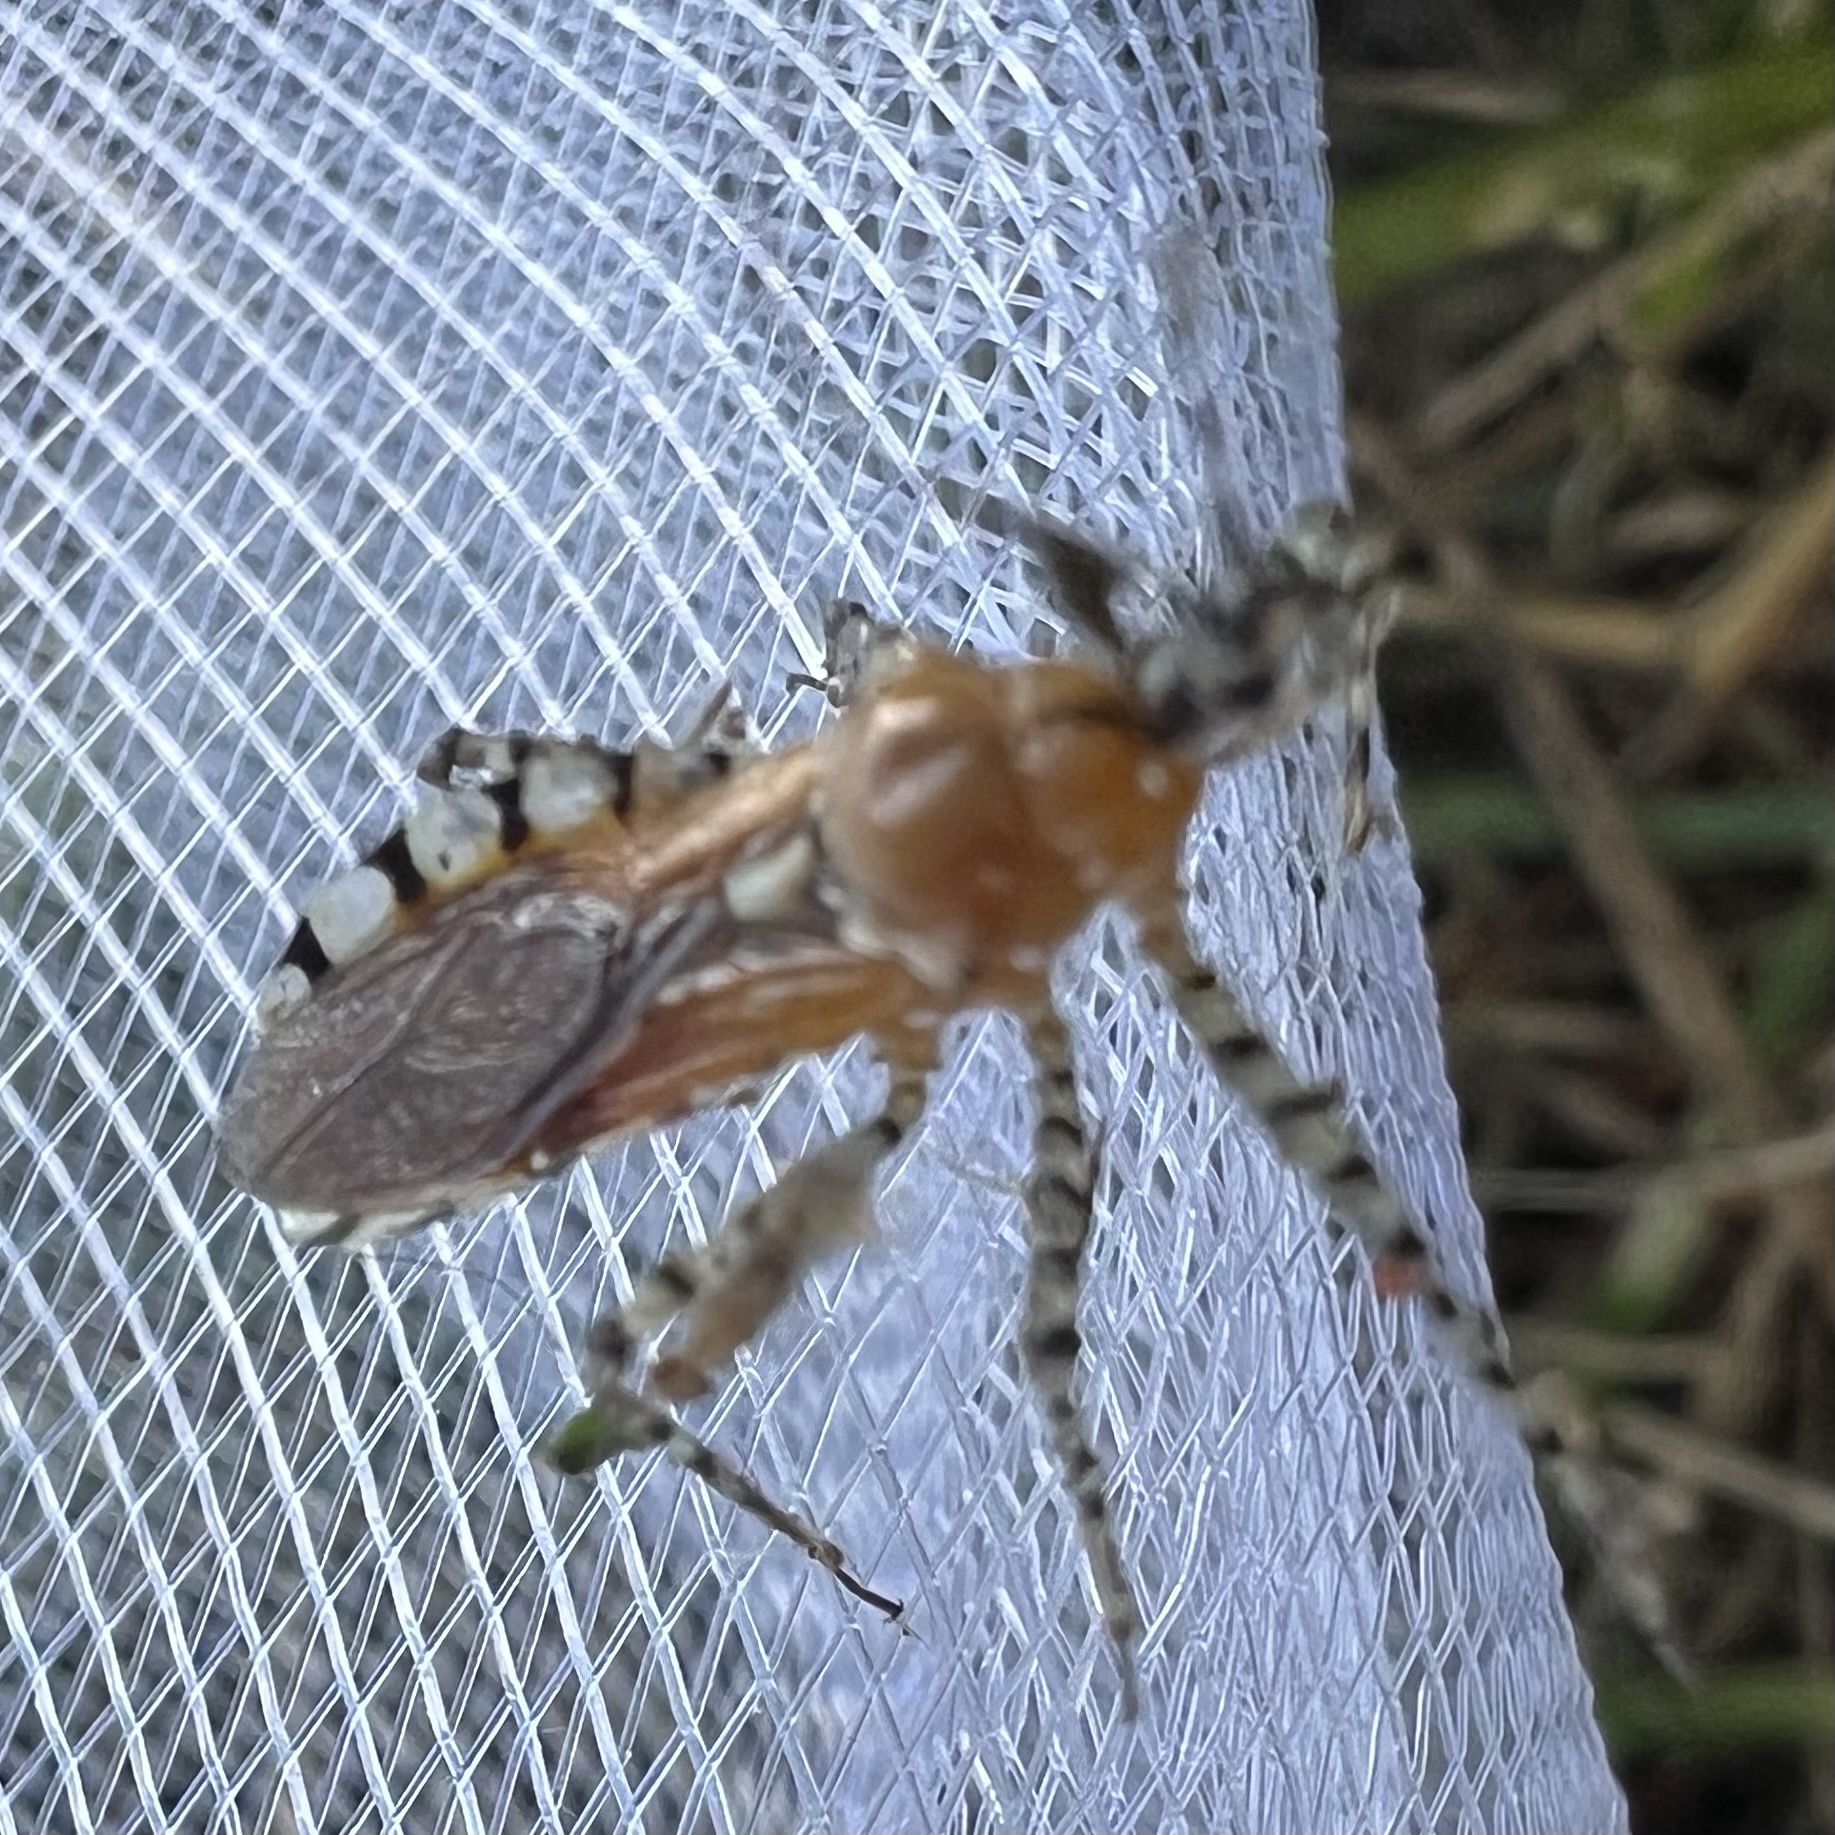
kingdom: Animalia
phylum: Arthropoda
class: Insecta
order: Hemiptera
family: Reduviidae
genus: Pselliopus
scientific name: Pselliopus cinctus
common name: Ringed assassin bug
